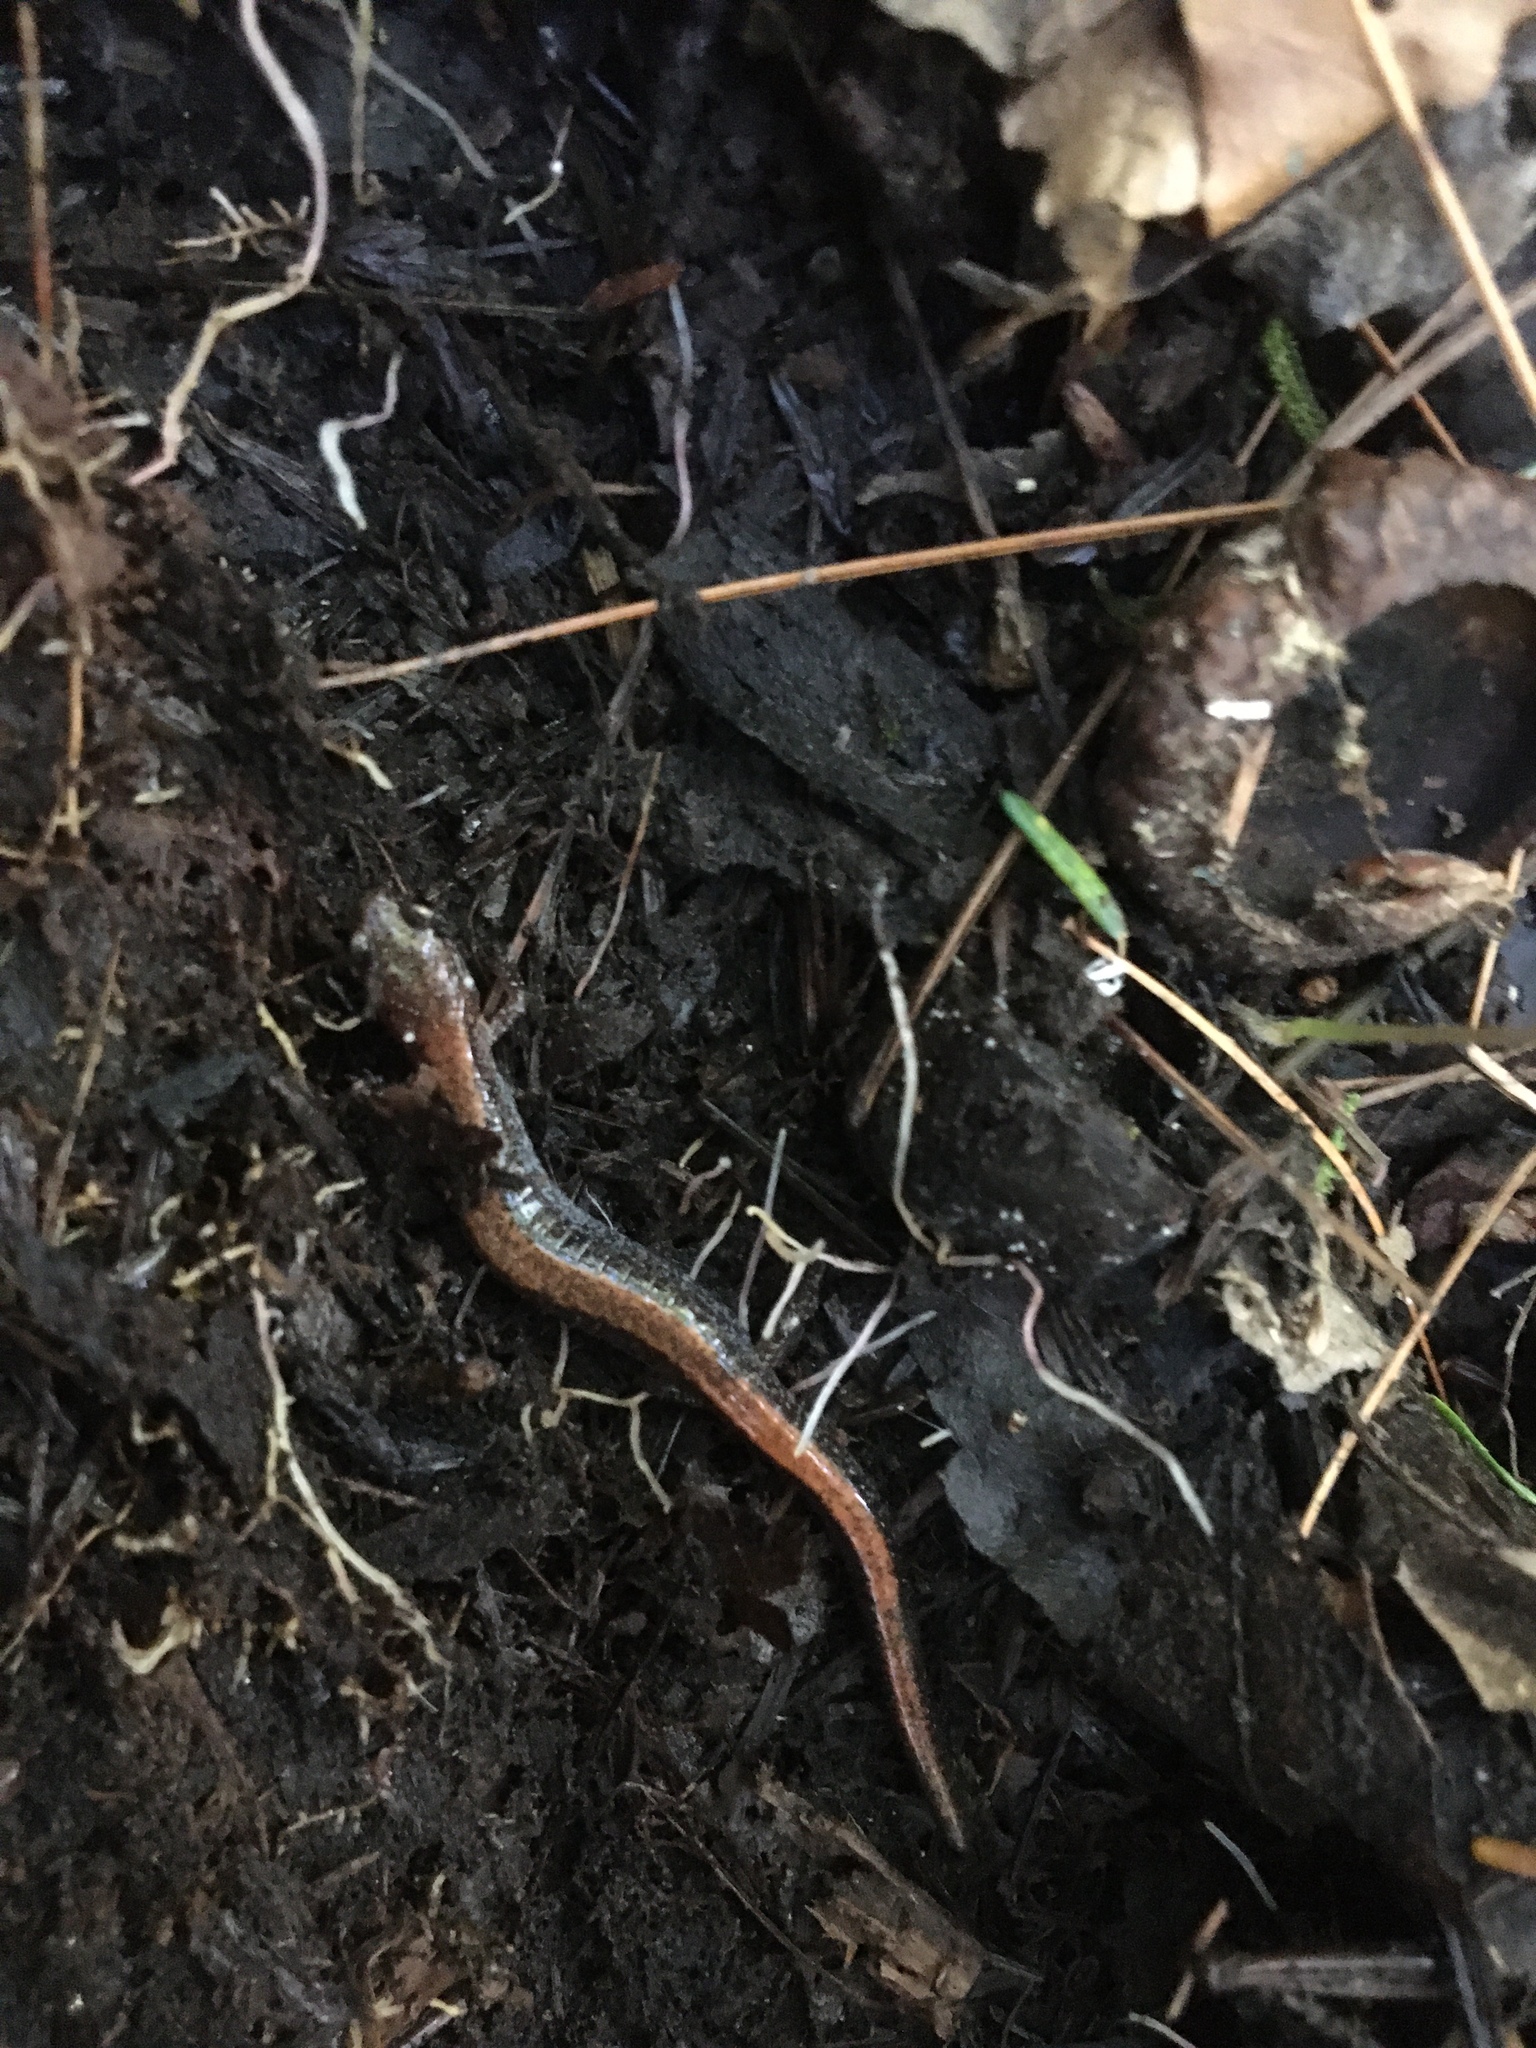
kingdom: Animalia
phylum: Chordata
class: Amphibia
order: Caudata
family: Plethodontidae
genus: Plethodon
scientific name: Plethodon cinereus
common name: Redback salamander
